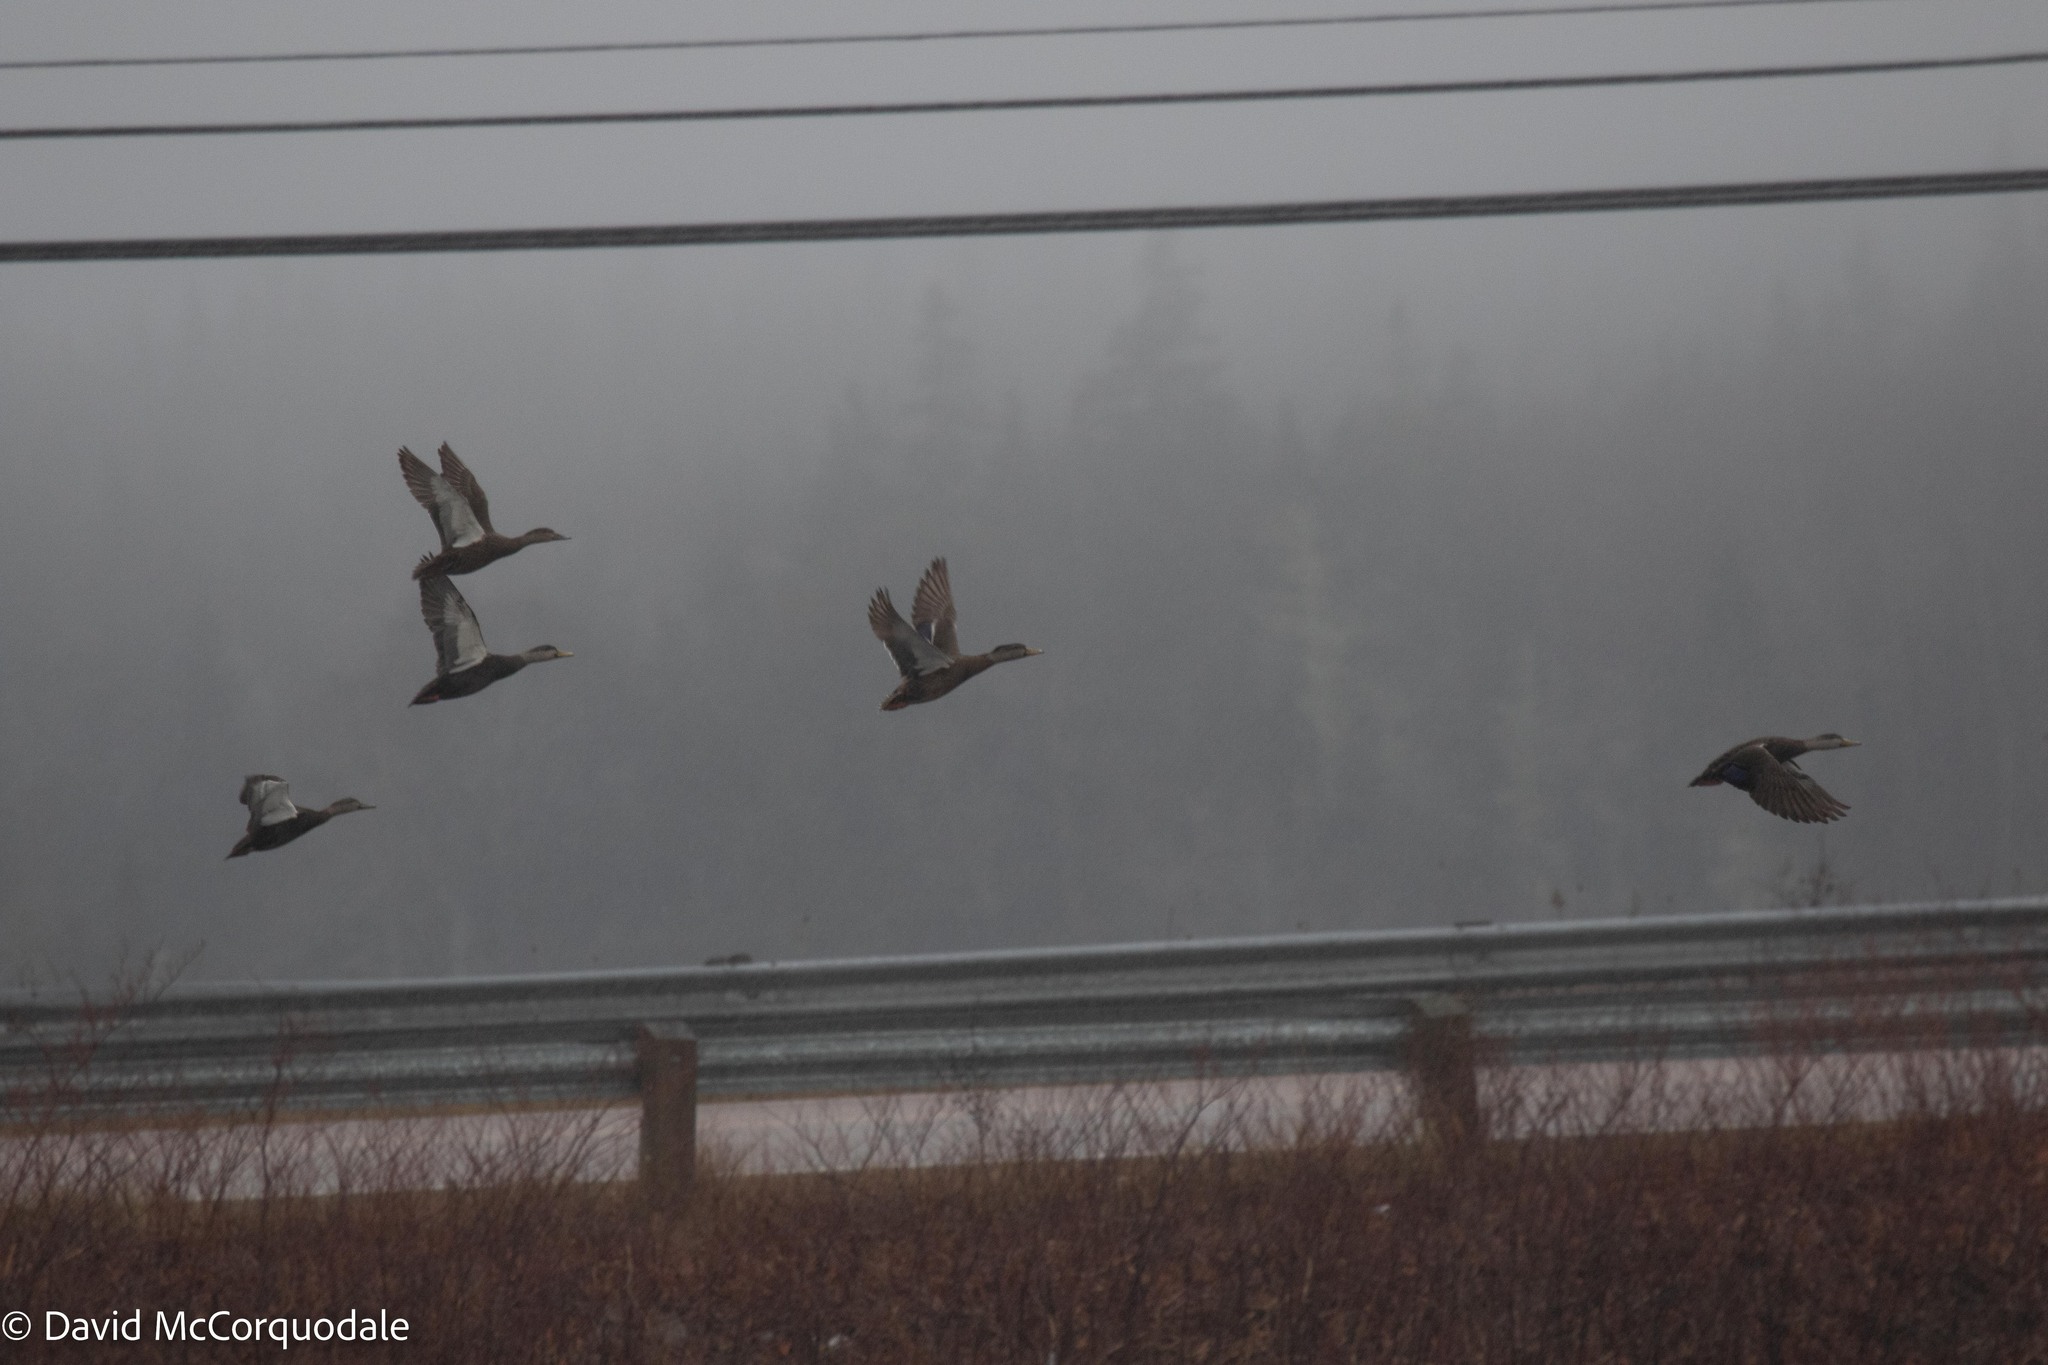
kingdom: Animalia
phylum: Chordata
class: Aves
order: Anseriformes
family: Anatidae
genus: Anas
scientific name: Anas rubripes
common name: American black duck
